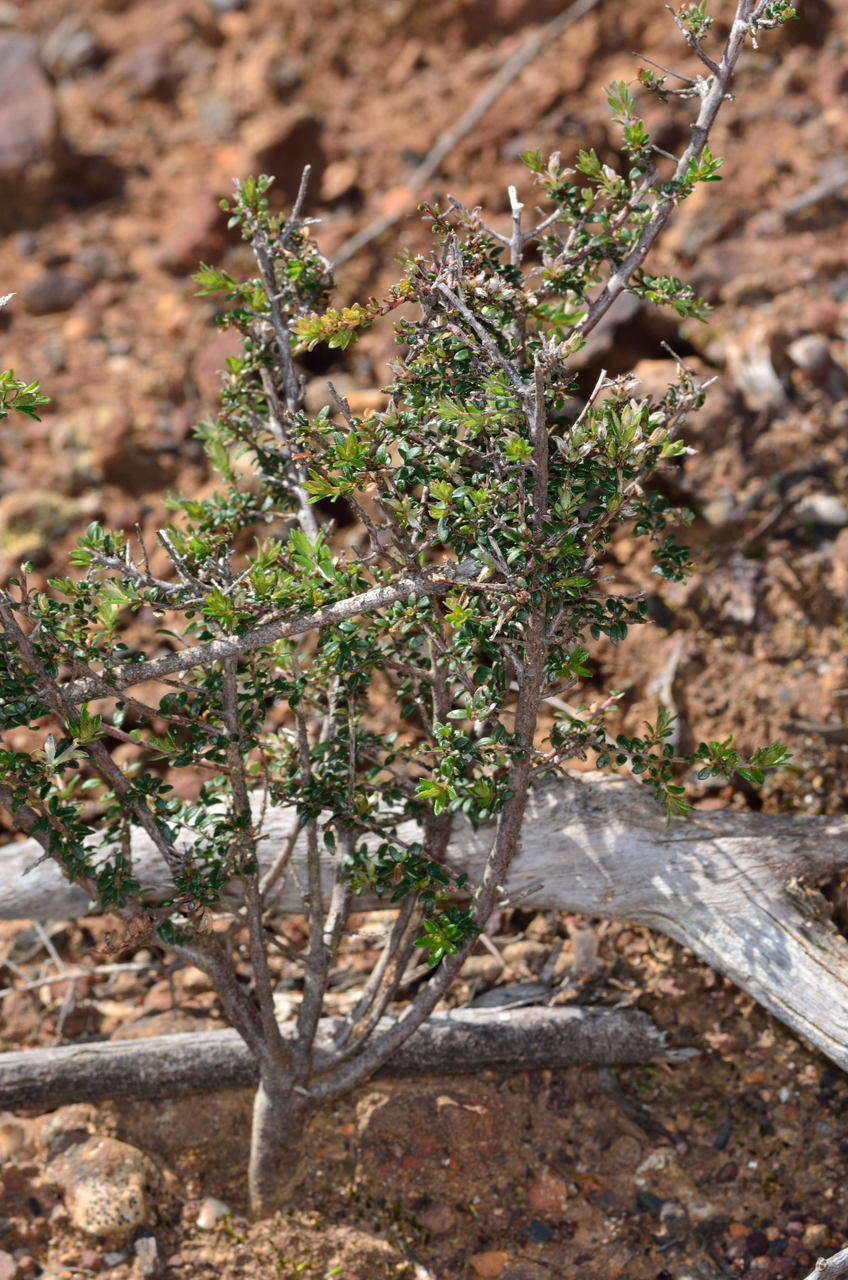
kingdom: Plantae
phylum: Tracheophyta
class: Magnoliopsida
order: Fabales
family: Fabaceae
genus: Pultenaea
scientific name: Pultenaea gunnii
